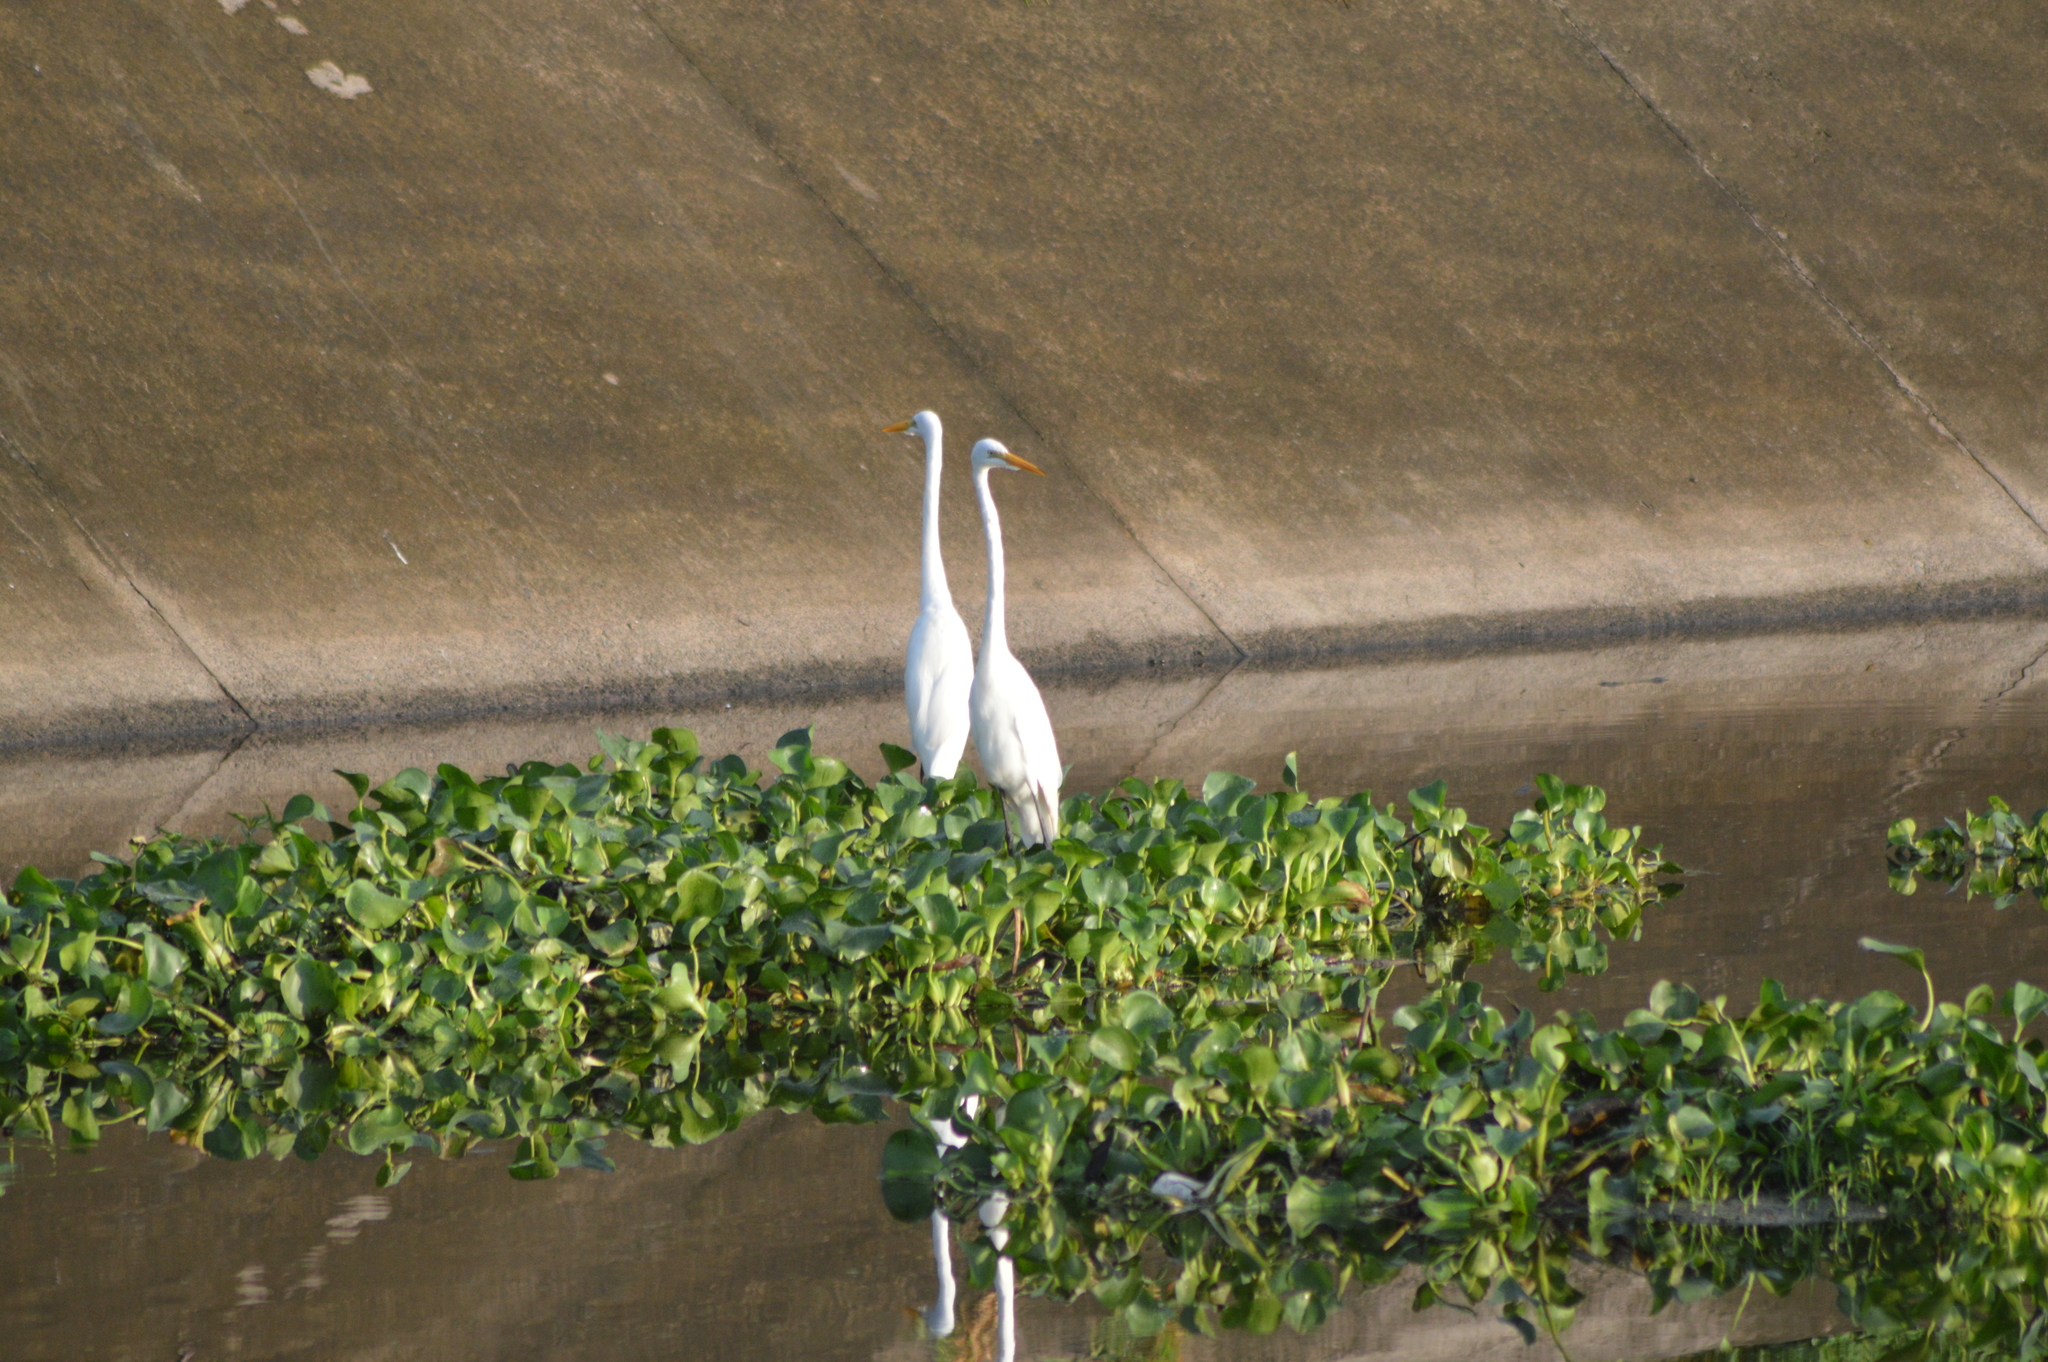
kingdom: Animalia
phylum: Chordata
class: Aves
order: Pelecaniformes
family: Ardeidae
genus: Ardea
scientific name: Ardea alba
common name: Great egret
